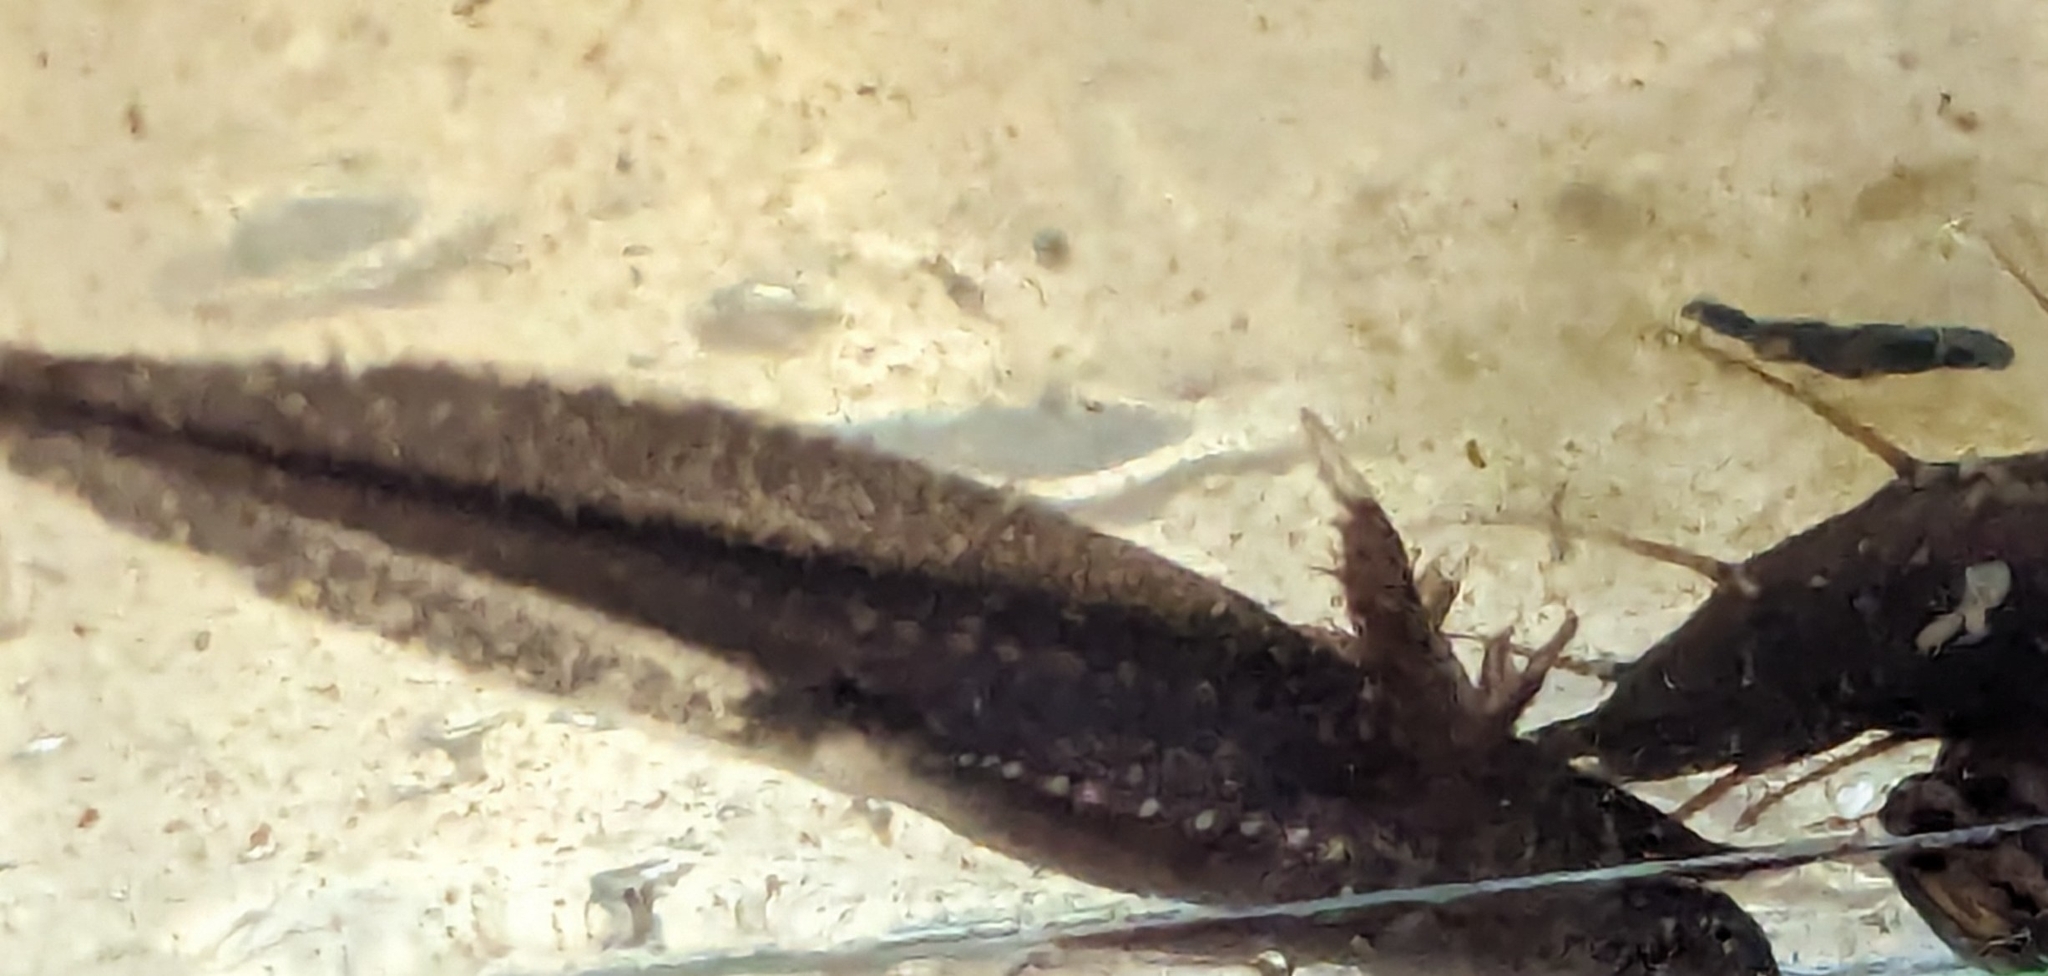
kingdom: Animalia
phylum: Chordata
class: Amphibia
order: Caudata
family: Ambystomatidae
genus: Ambystoma
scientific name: Ambystoma opacum
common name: Marbled salamander
